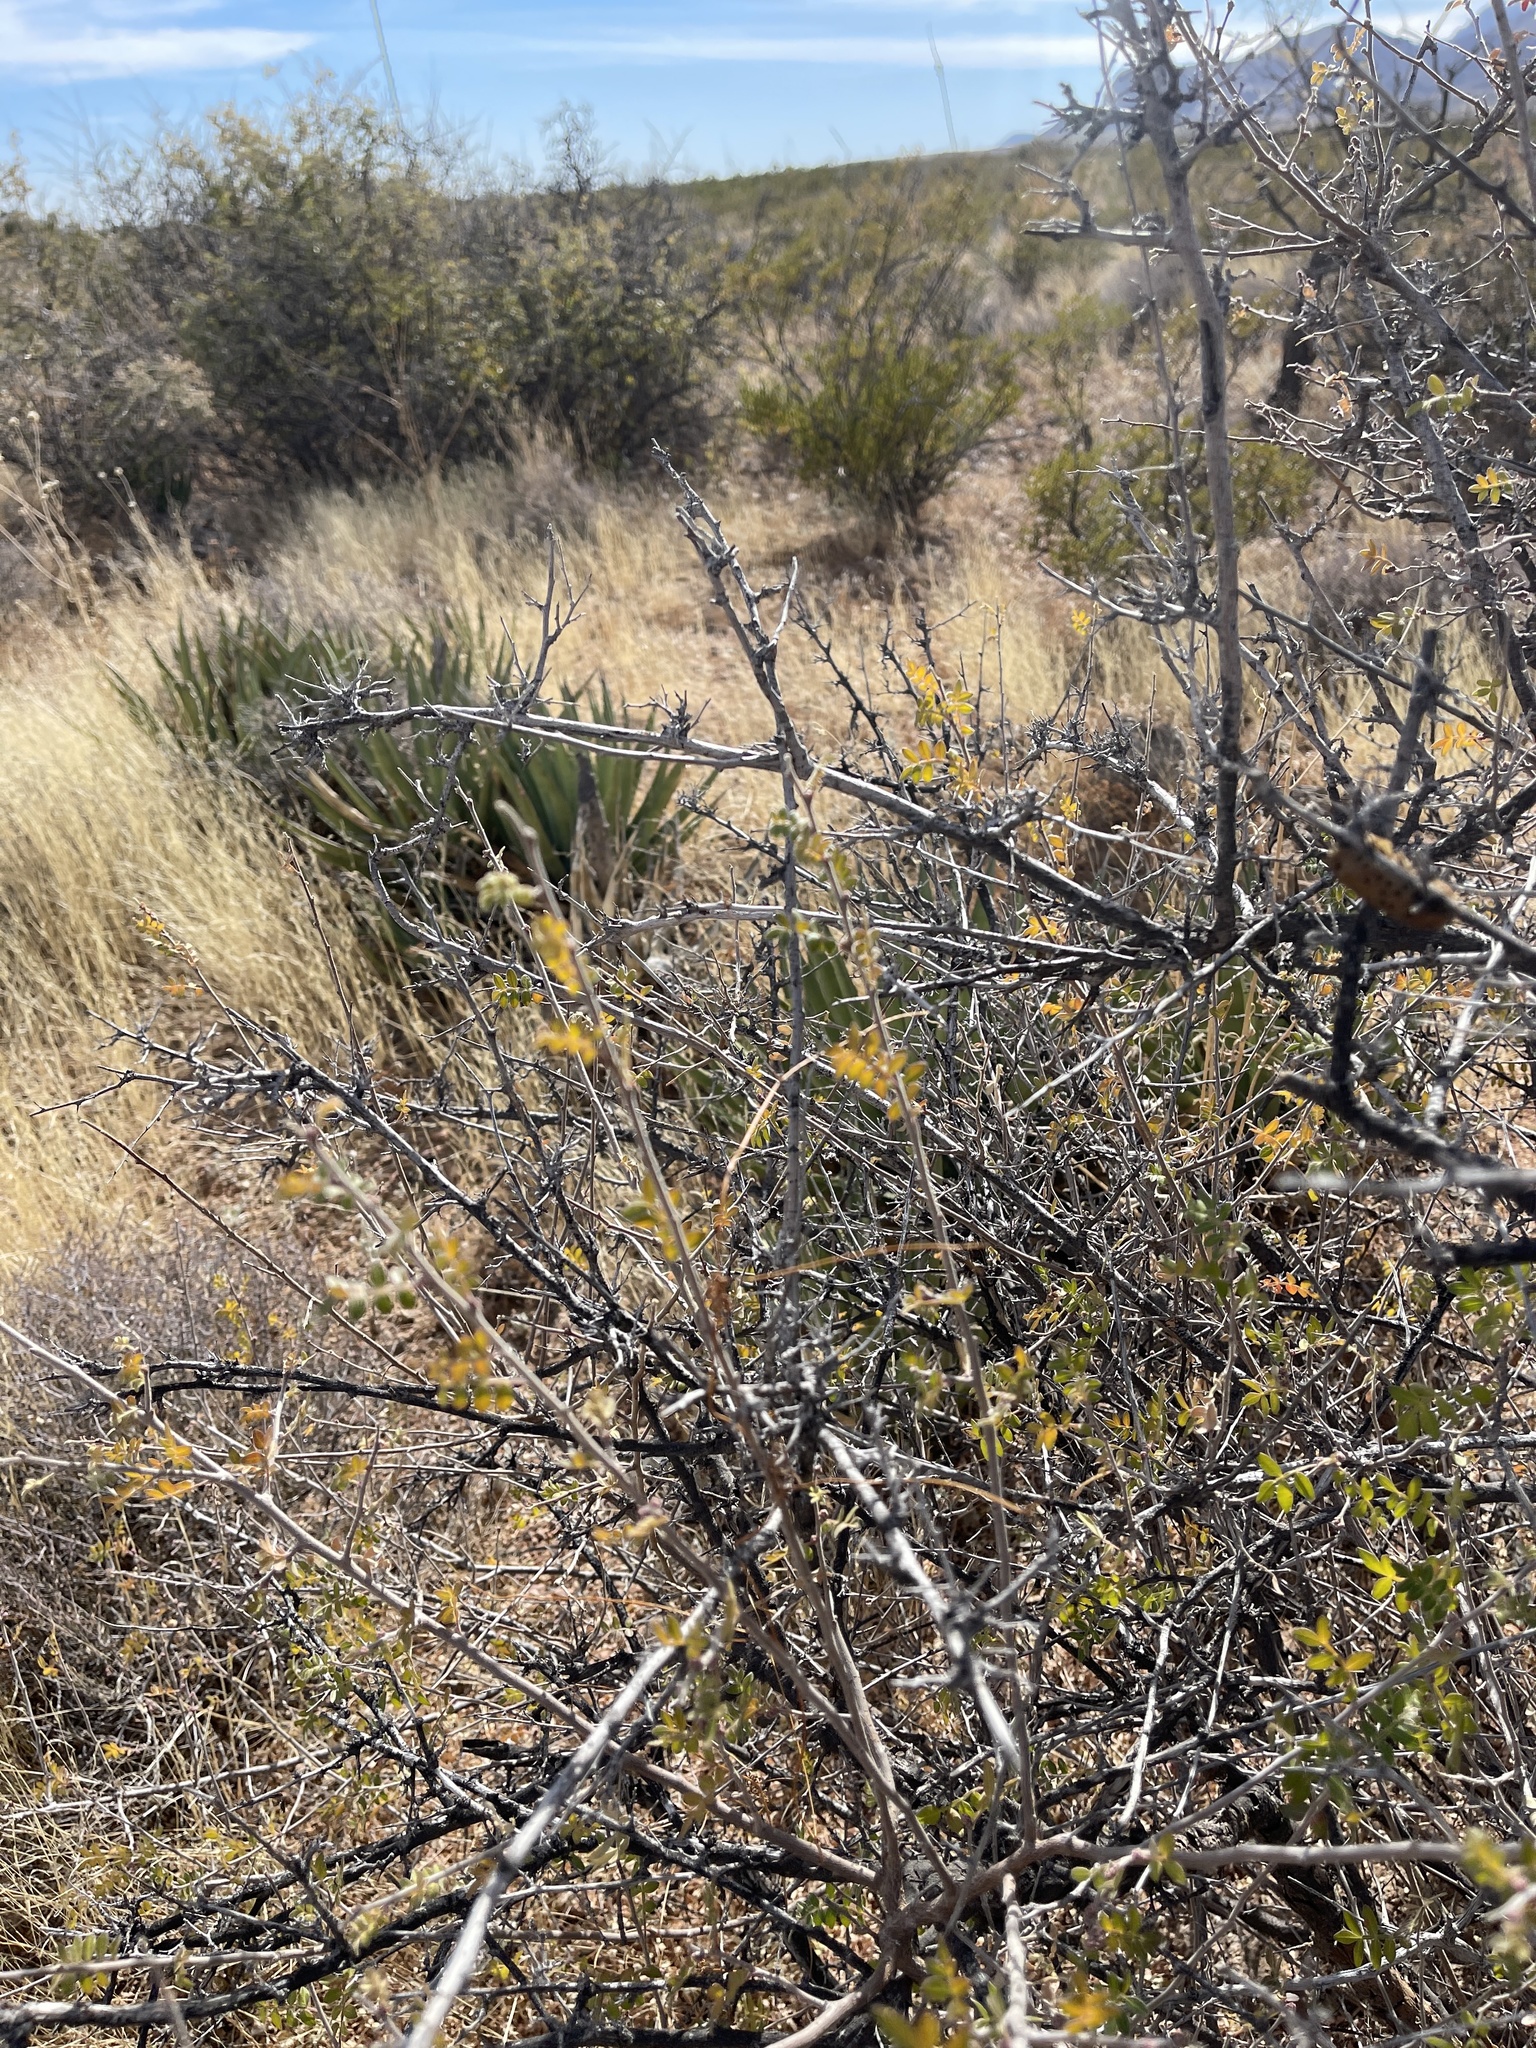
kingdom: Plantae
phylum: Tracheophyta
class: Magnoliopsida
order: Sapindales
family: Anacardiaceae
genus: Rhus
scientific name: Rhus microphylla
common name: Desert sumac
